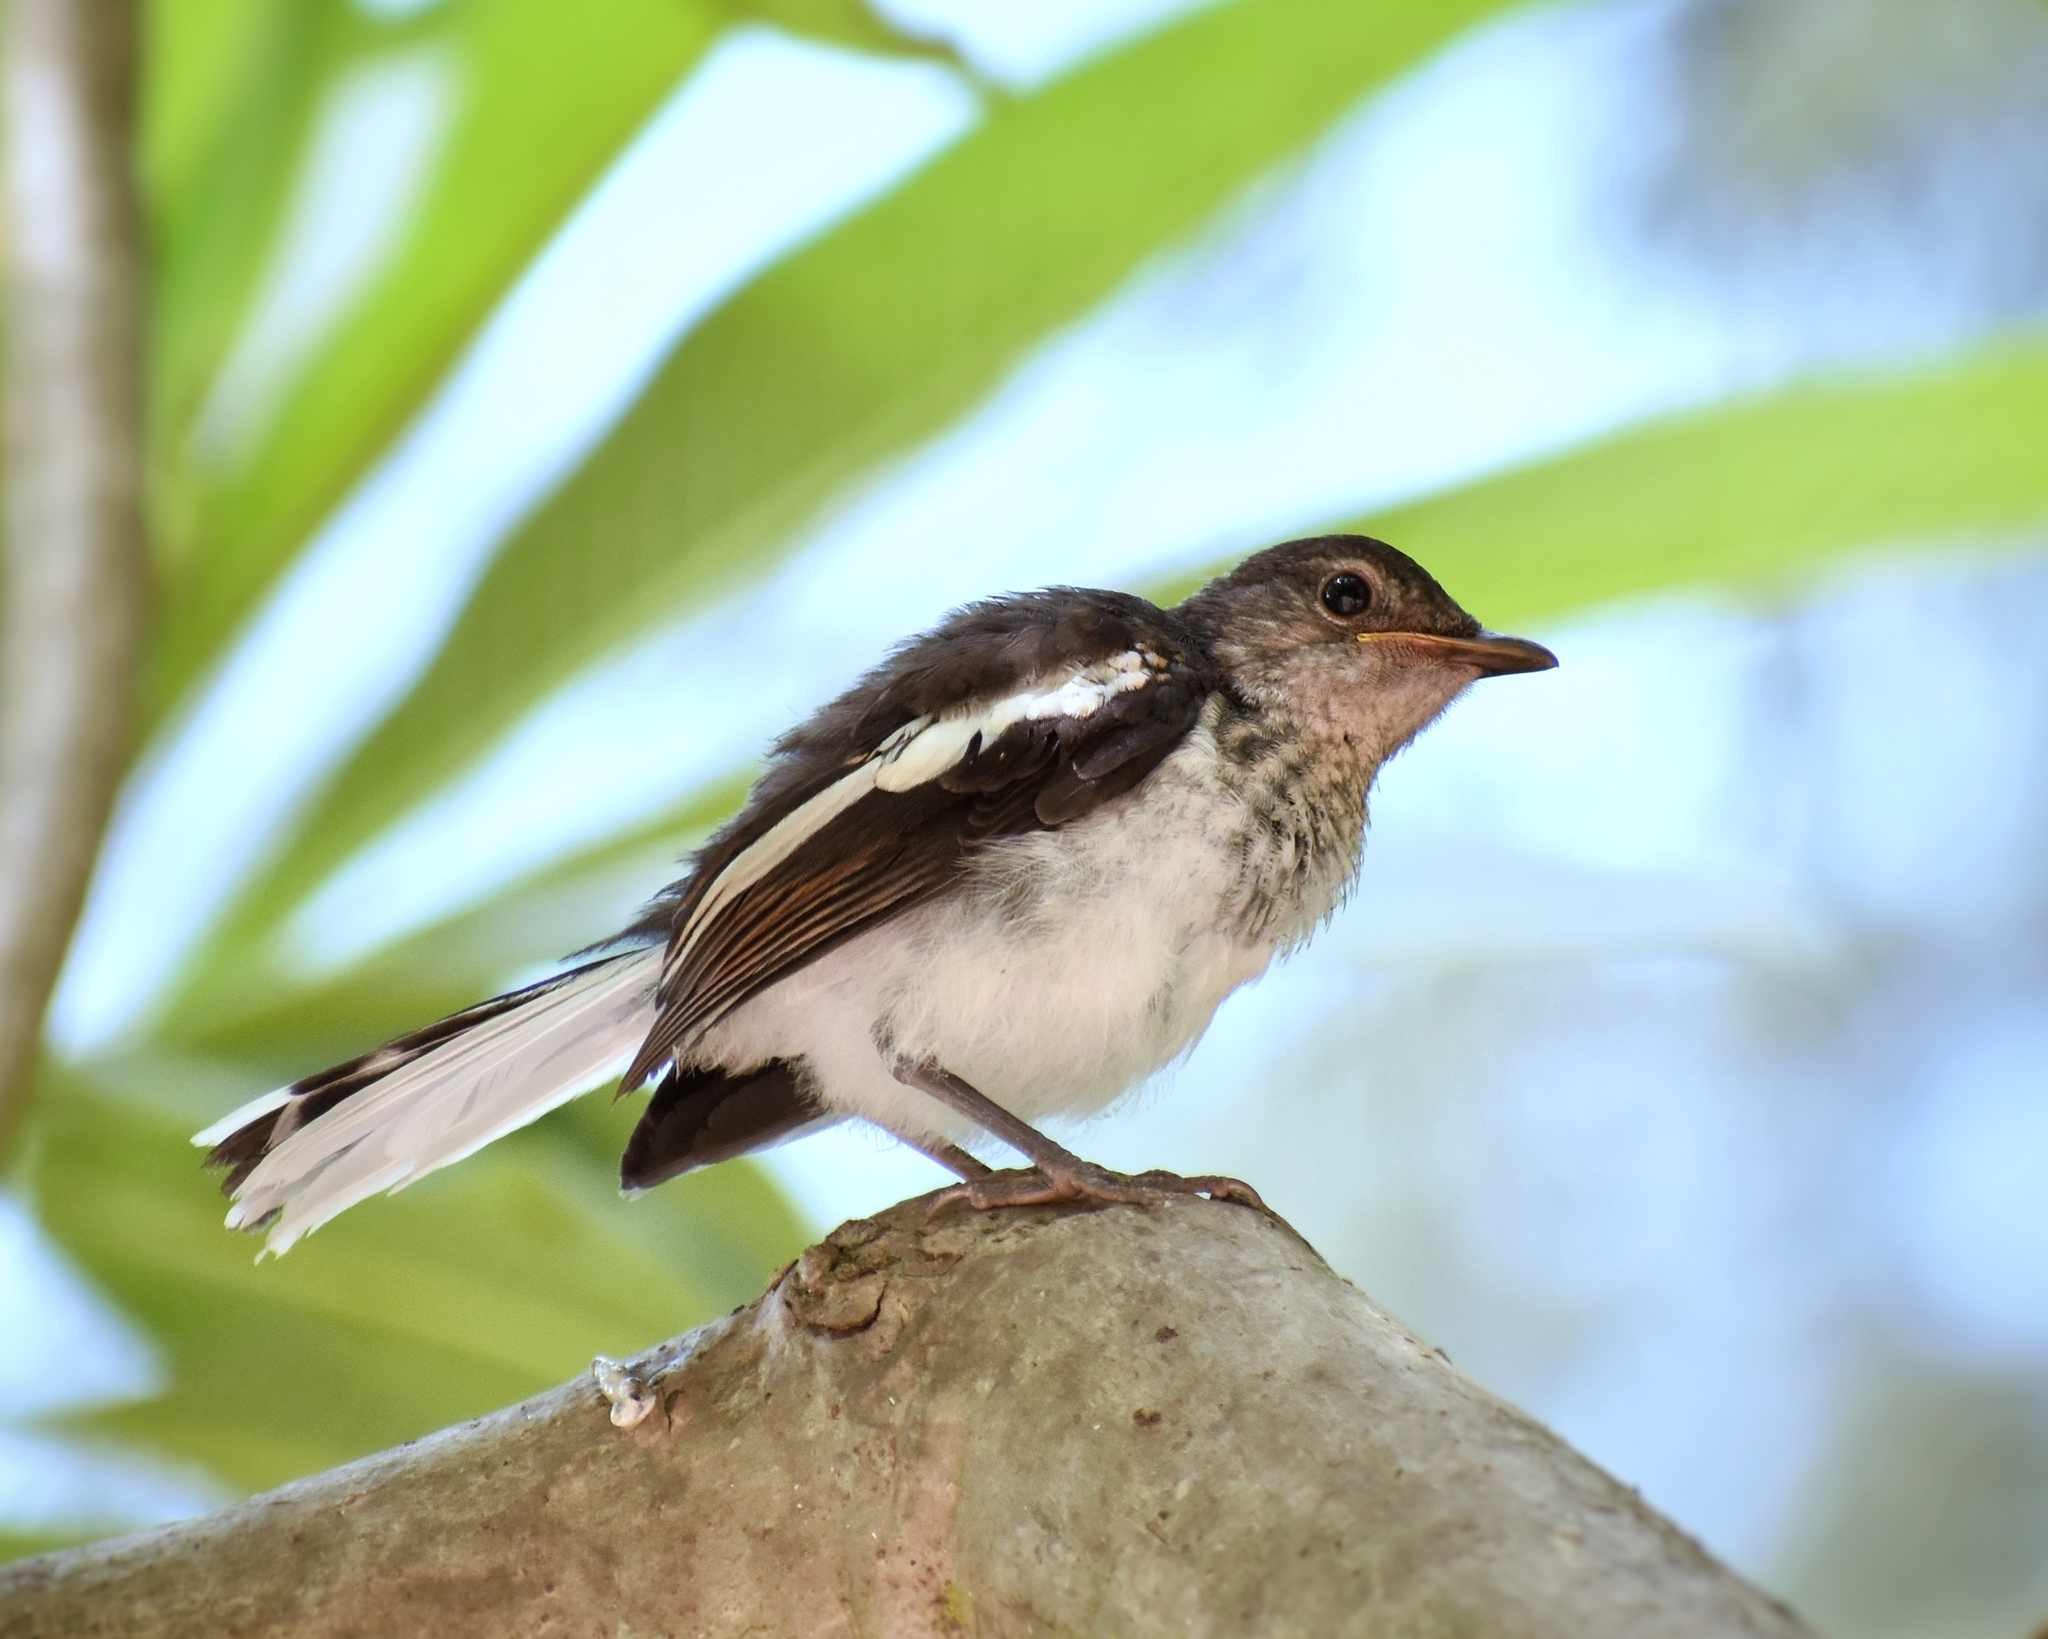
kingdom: Animalia
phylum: Chordata
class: Aves
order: Passeriformes
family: Muscicapidae
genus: Copsychus
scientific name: Copsychus saularis
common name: Oriental magpie-robin
